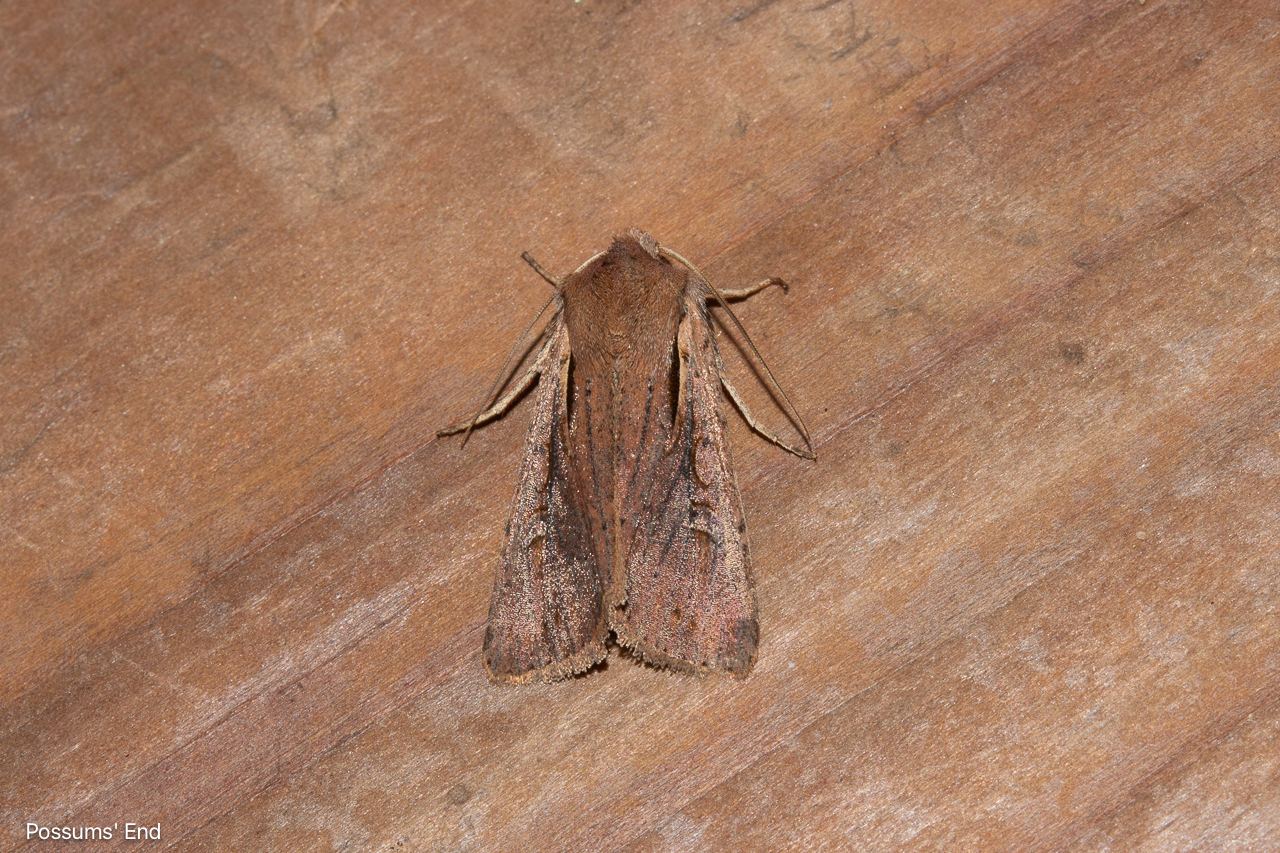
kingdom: Animalia
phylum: Arthropoda
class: Insecta
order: Lepidoptera
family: Noctuidae
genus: Ichneutica
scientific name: Ichneutica atristriga
